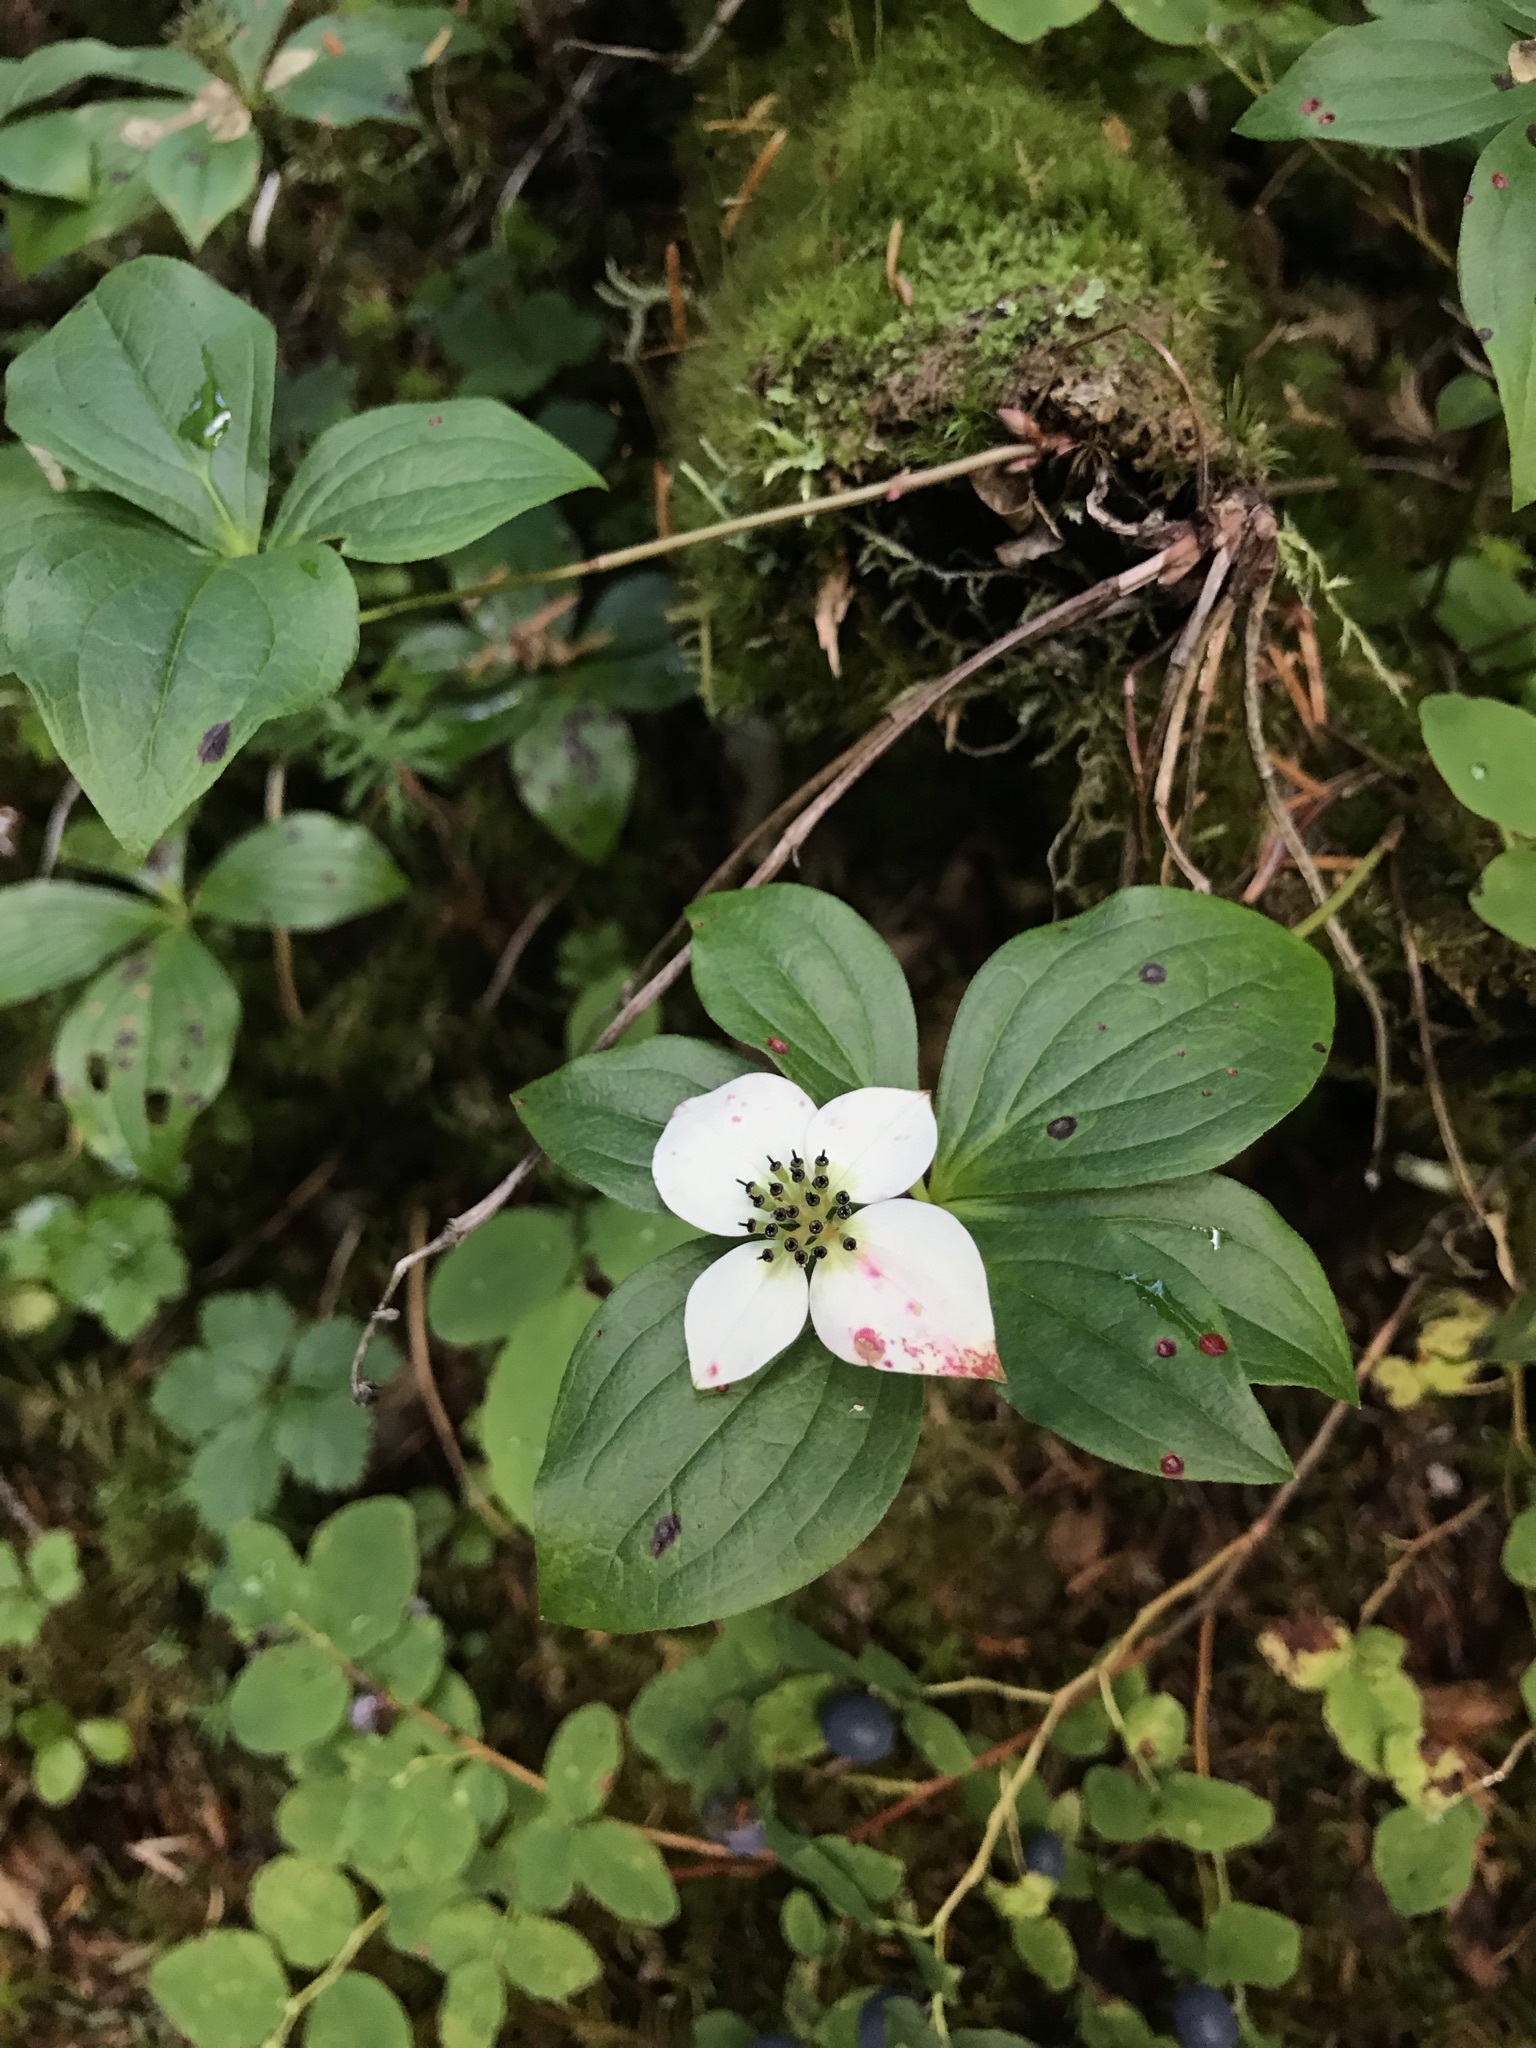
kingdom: Plantae
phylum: Tracheophyta
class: Magnoliopsida
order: Cornales
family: Cornaceae
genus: Cornus
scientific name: Cornus unalaschkensis
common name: Alaska bunchberry
